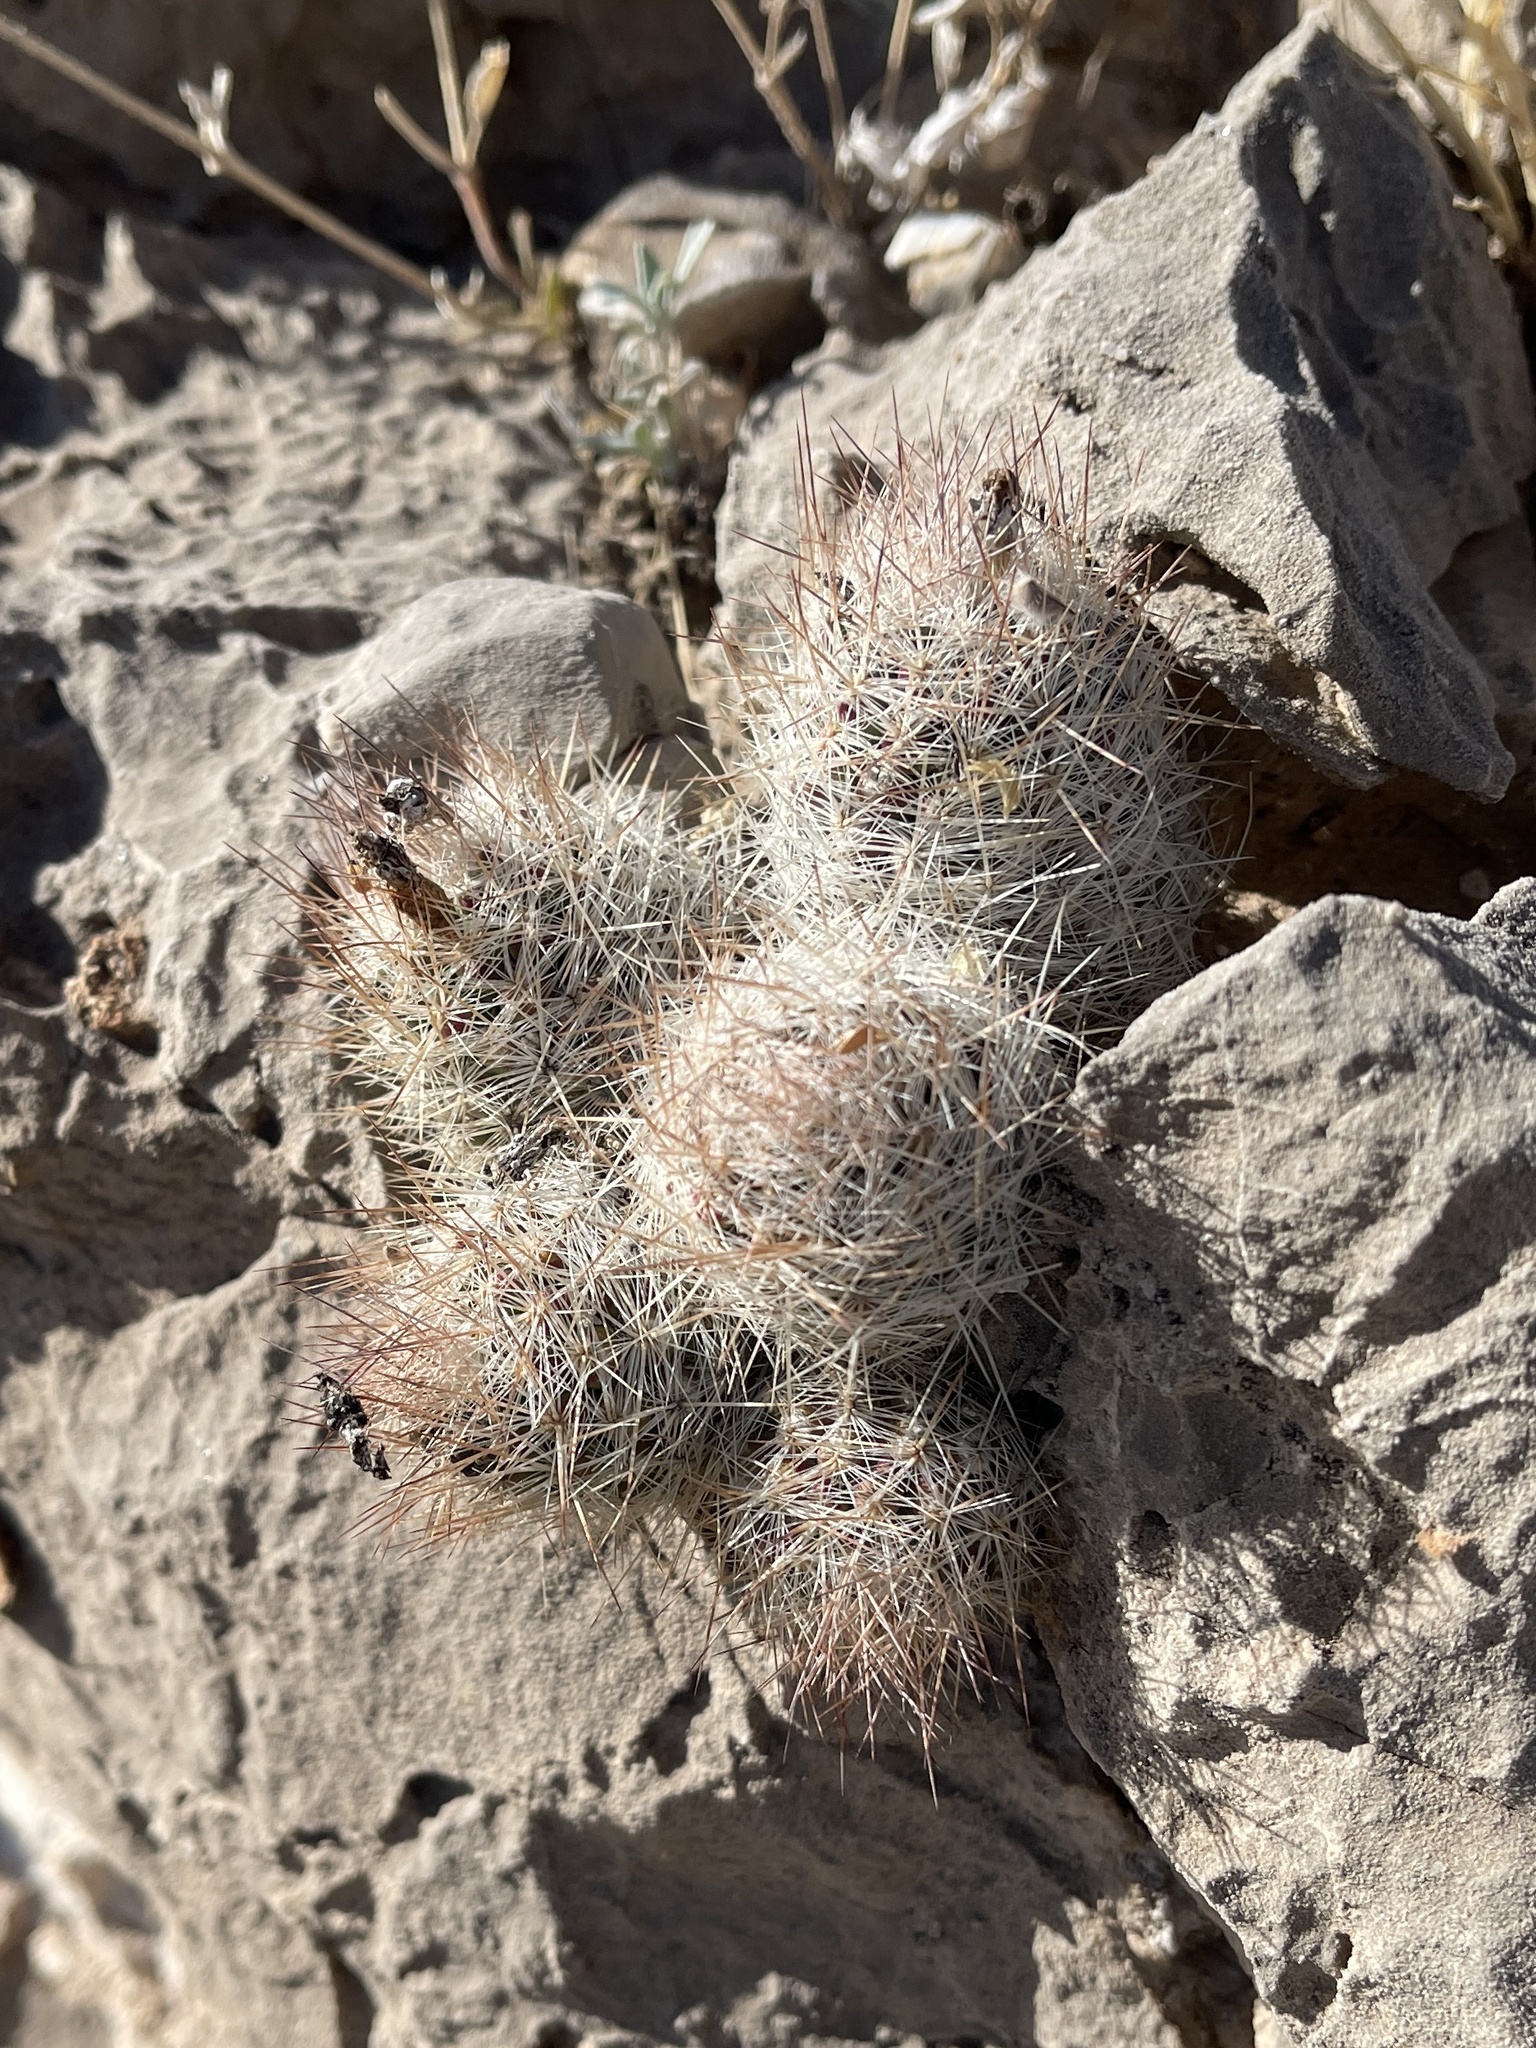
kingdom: Plantae
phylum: Tracheophyta
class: Magnoliopsida
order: Caryophyllales
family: Cactaceae
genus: Pelecyphora
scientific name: Pelecyphora tuberculosa
